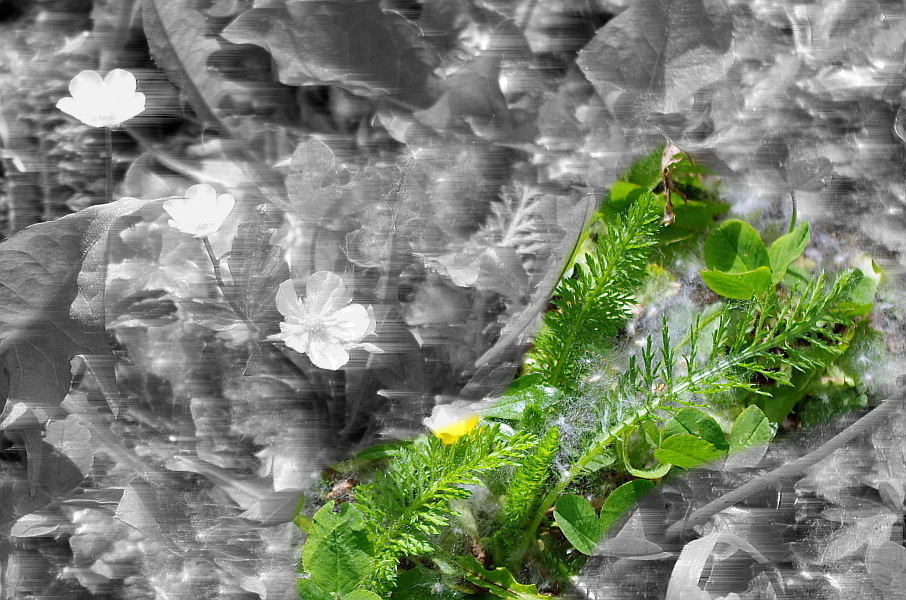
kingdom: Plantae
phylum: Tracheophyta
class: Magnoliopsida
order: Asterales
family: Asteraceae
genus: Achillea
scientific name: Achillea millefolium
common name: Yarrow
